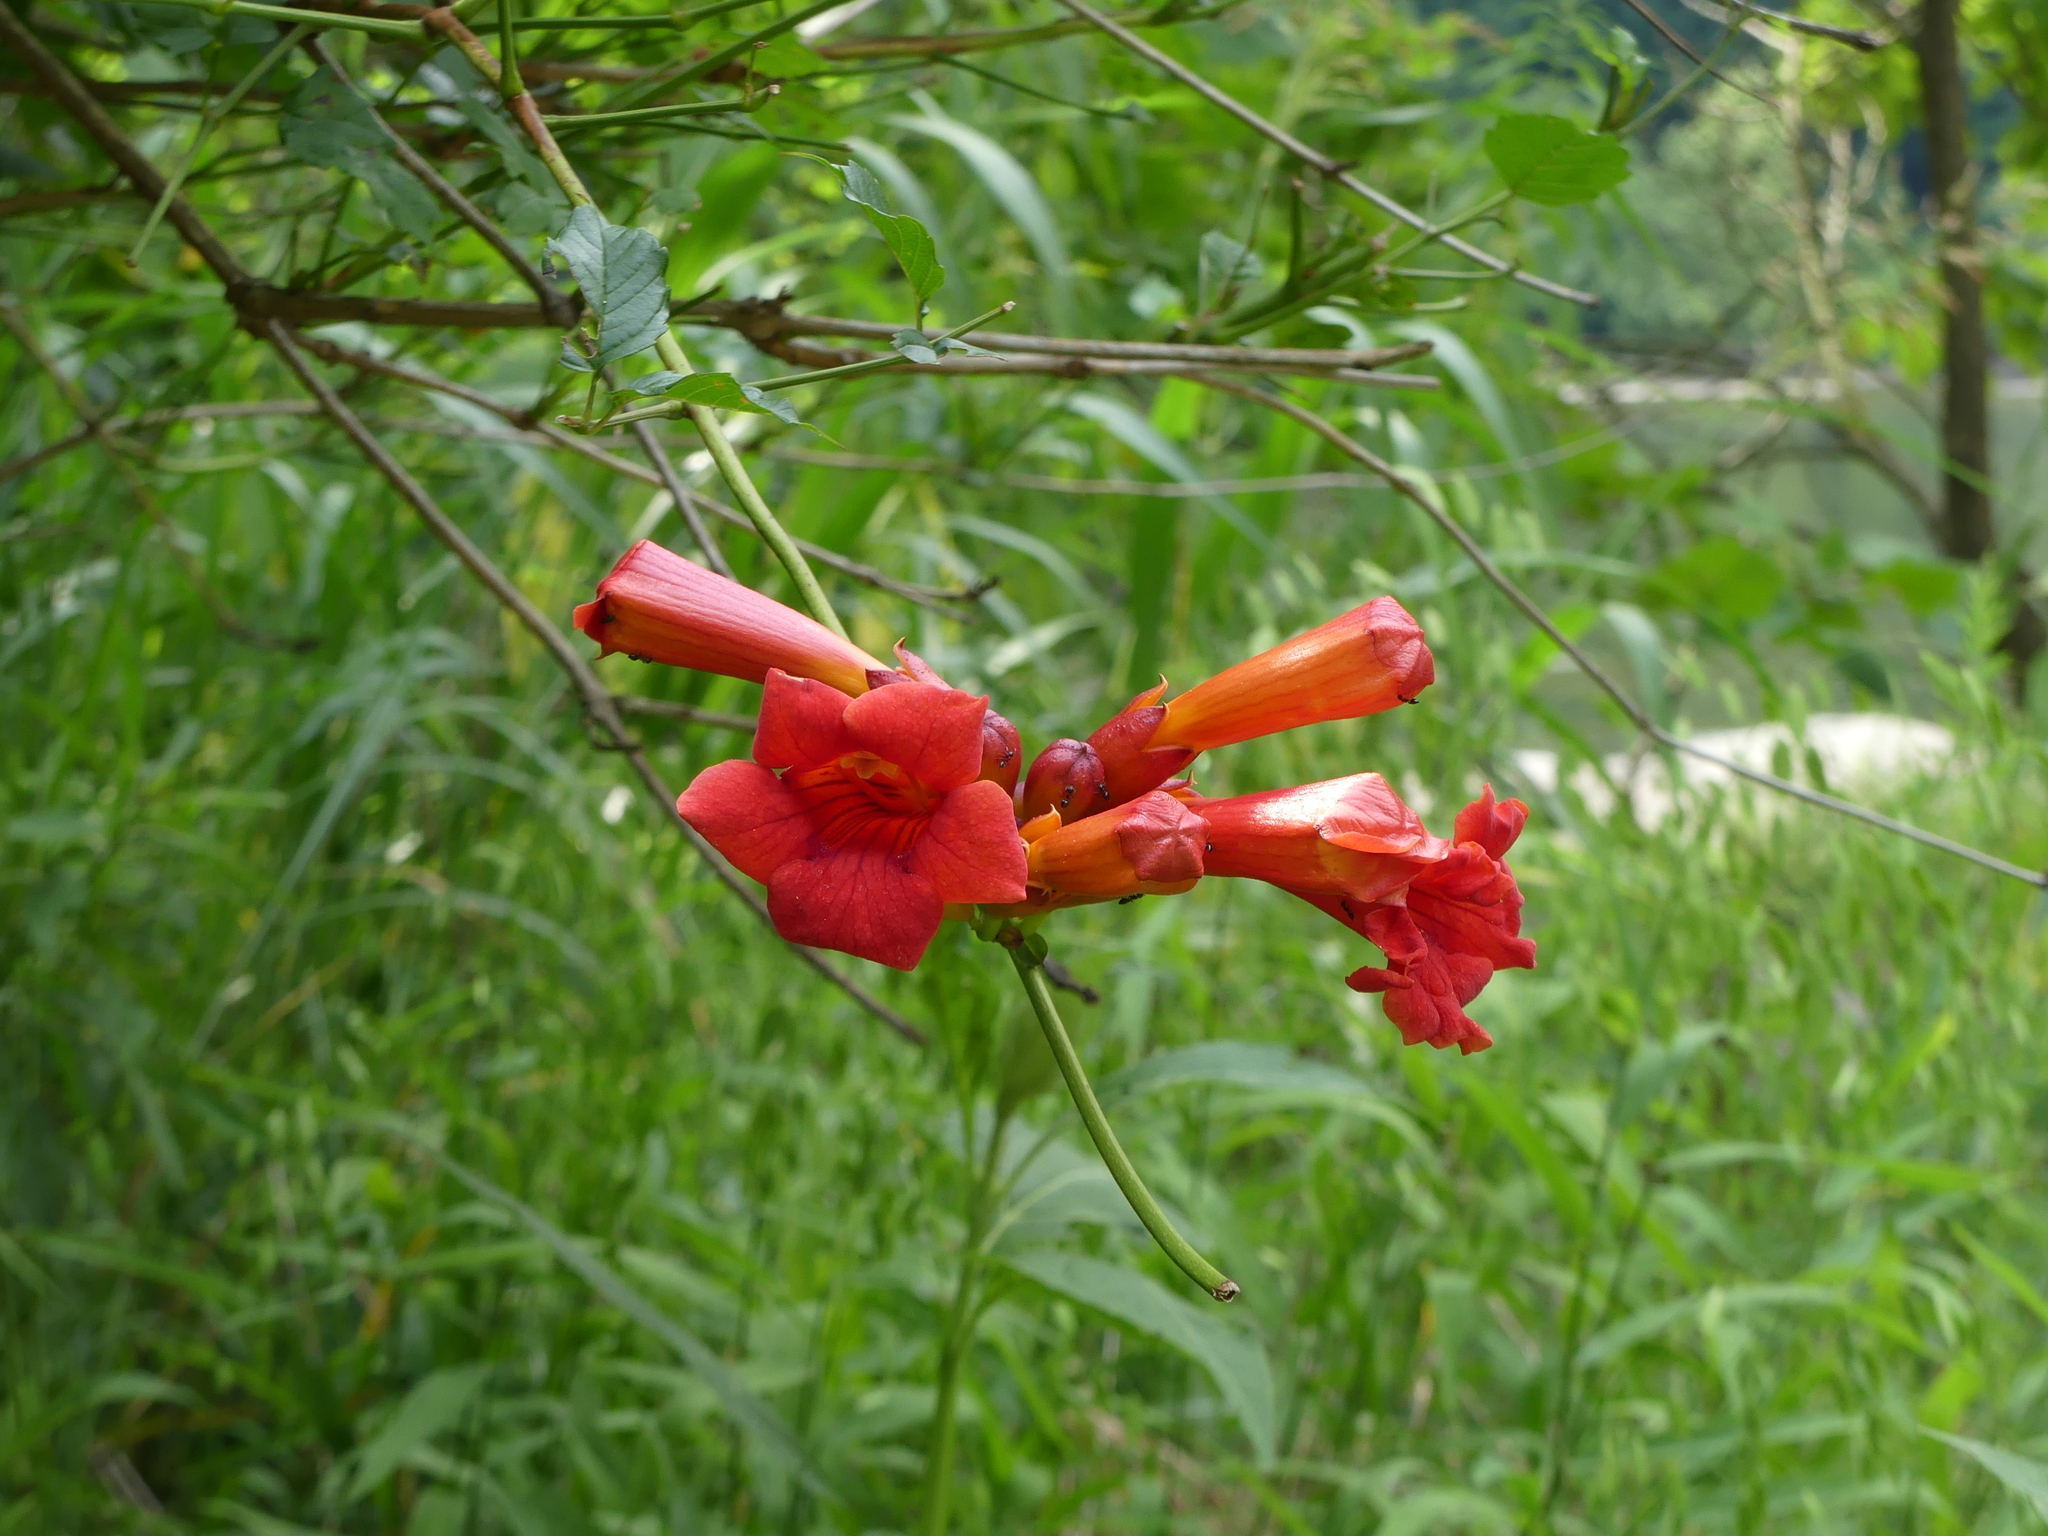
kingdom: Plantae
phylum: Tracheophyta
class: Magnoliopsida
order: Lamiales
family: Bignoniaceae
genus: Campsis
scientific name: Campsis radicans
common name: Trumpet-creeper
